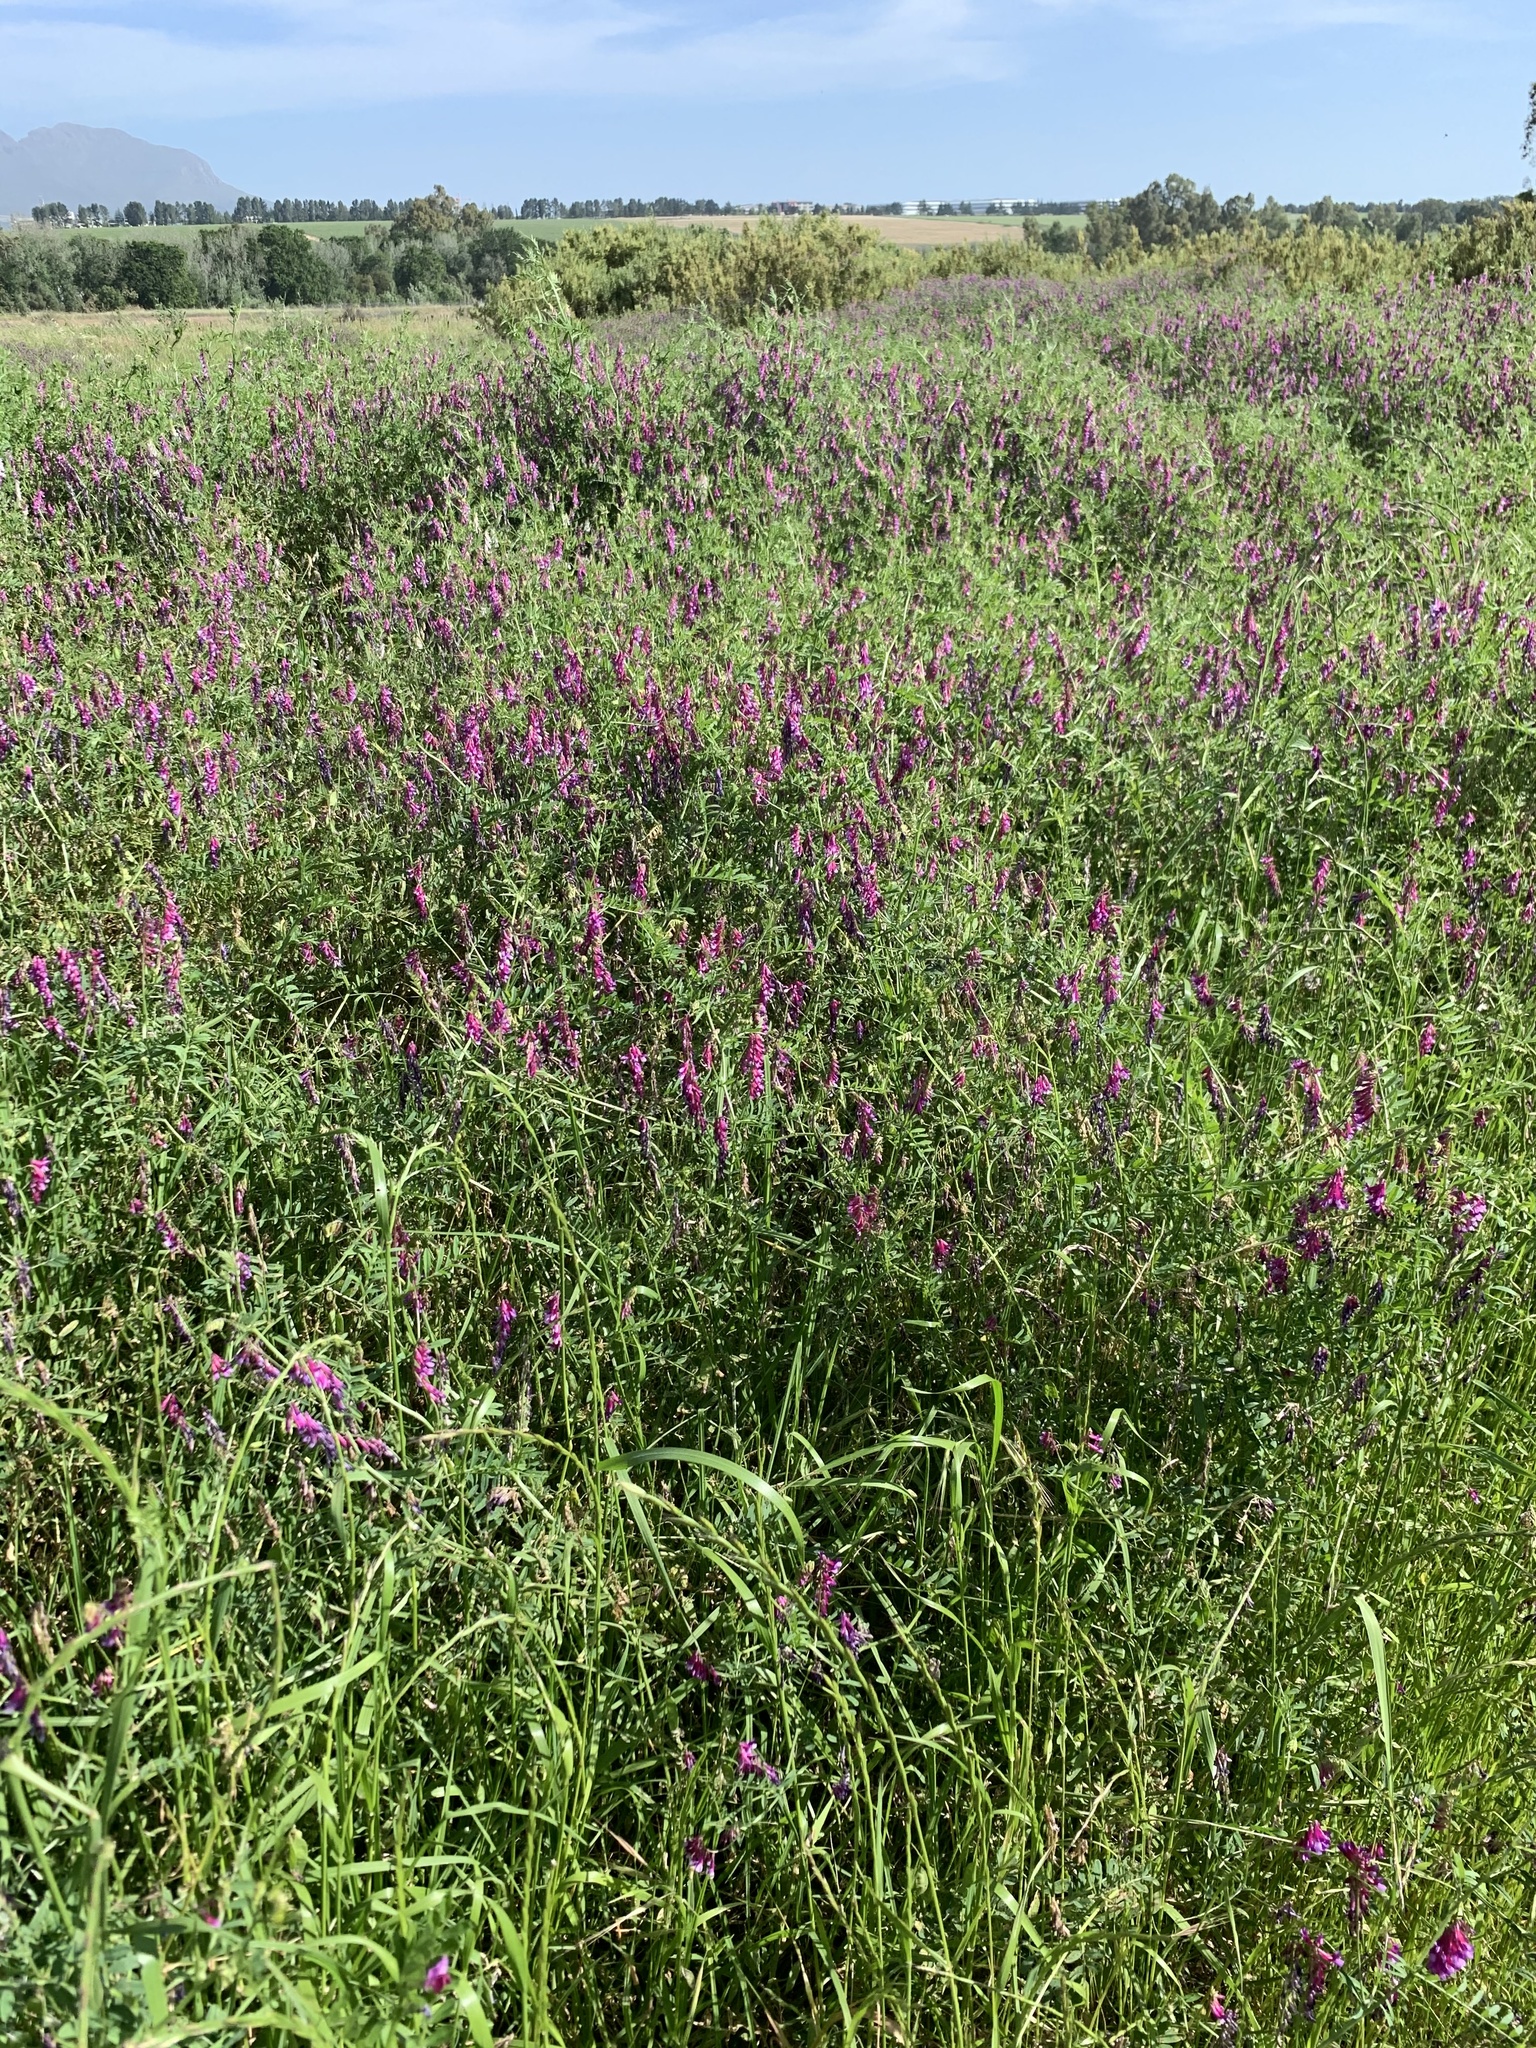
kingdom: Plantae
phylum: Tracheophyta
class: Magnoliopsida
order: Fabales
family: Fabaceae
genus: Vicia
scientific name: Vicia eriocarpa
